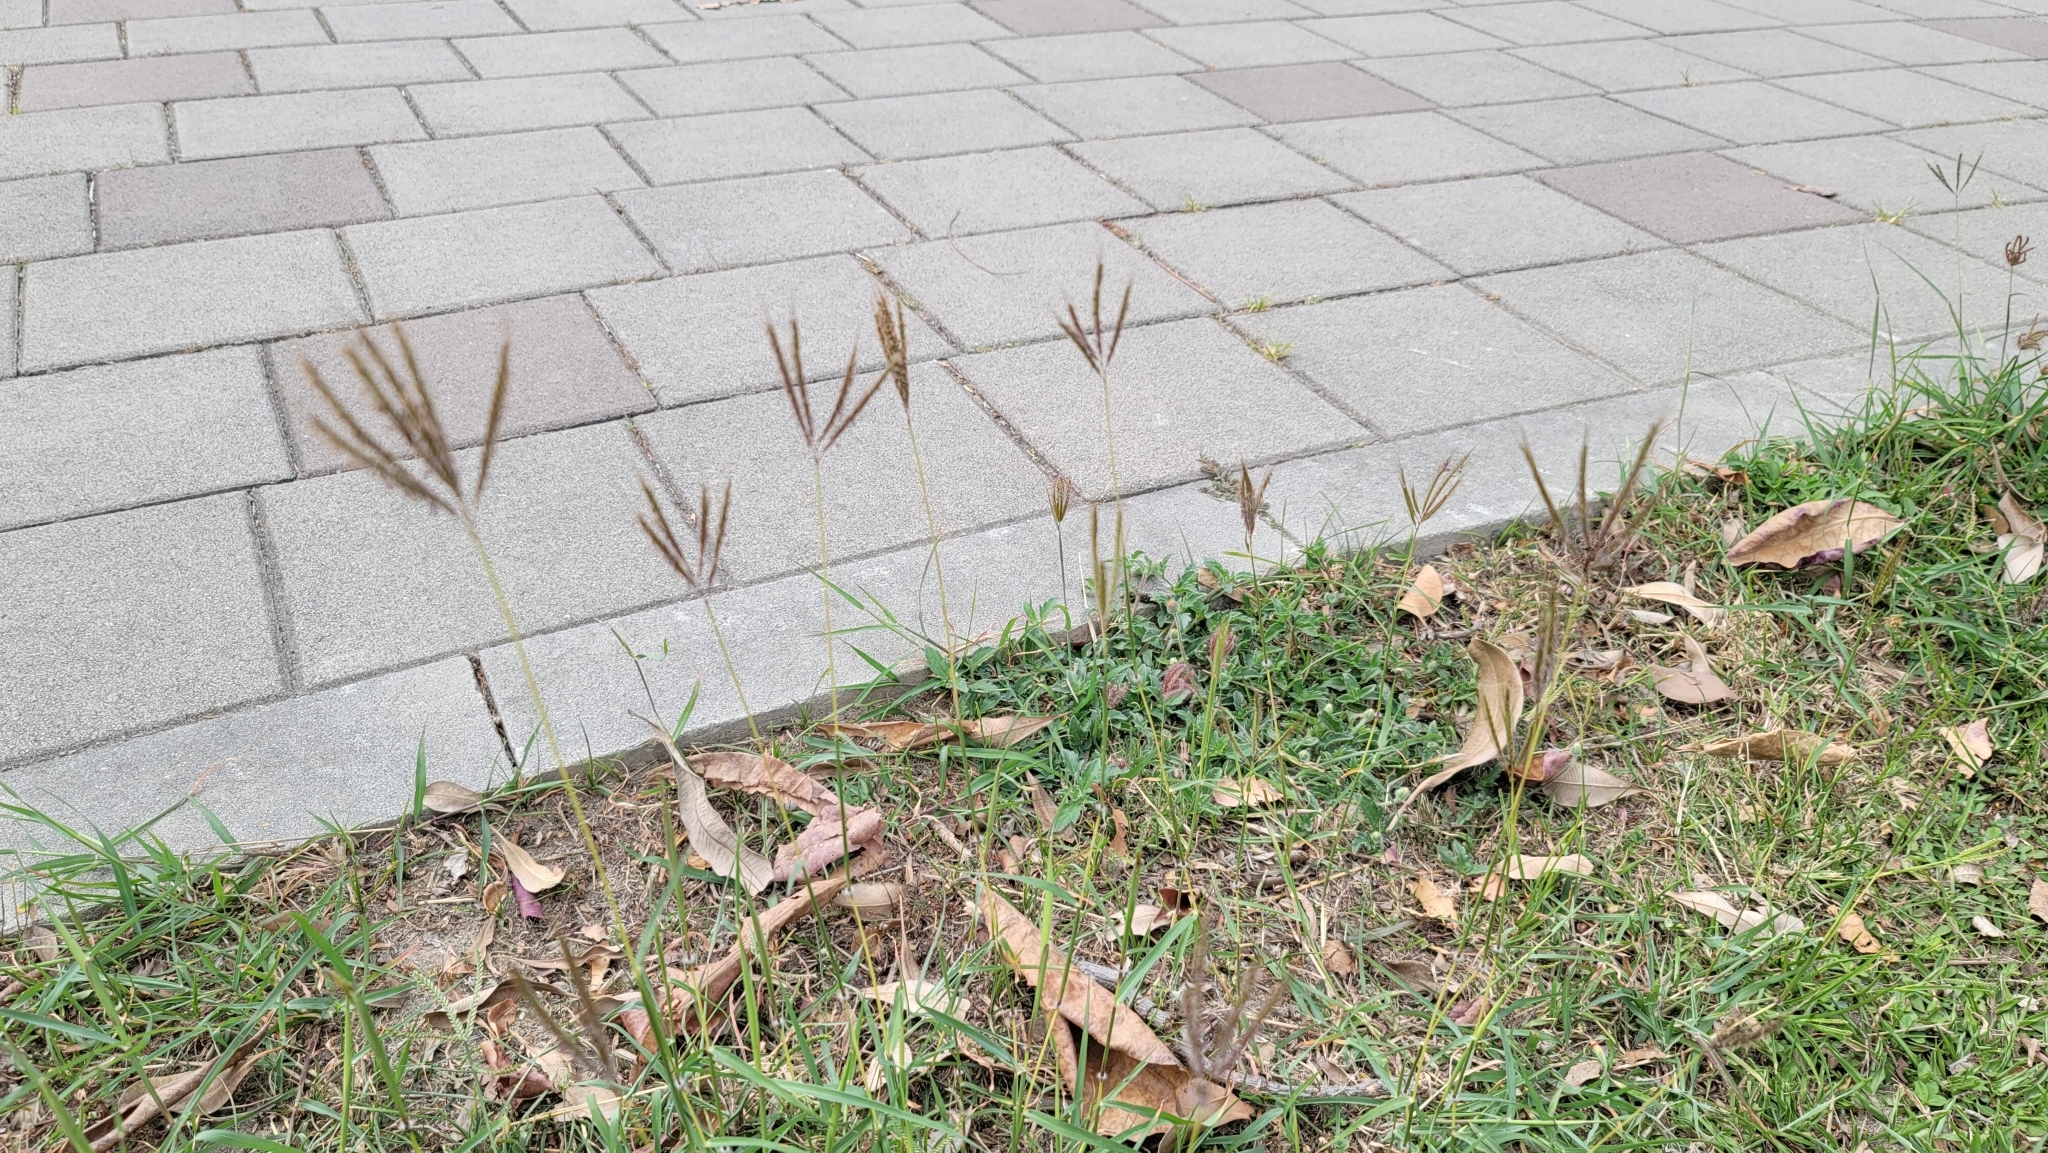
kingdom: Plantae
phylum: Tracheophyta
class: Liliopsida
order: Poales
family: Poaceae
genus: Dichanthium
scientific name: Dichanthium annulatum
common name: Kleberg's bluestem
